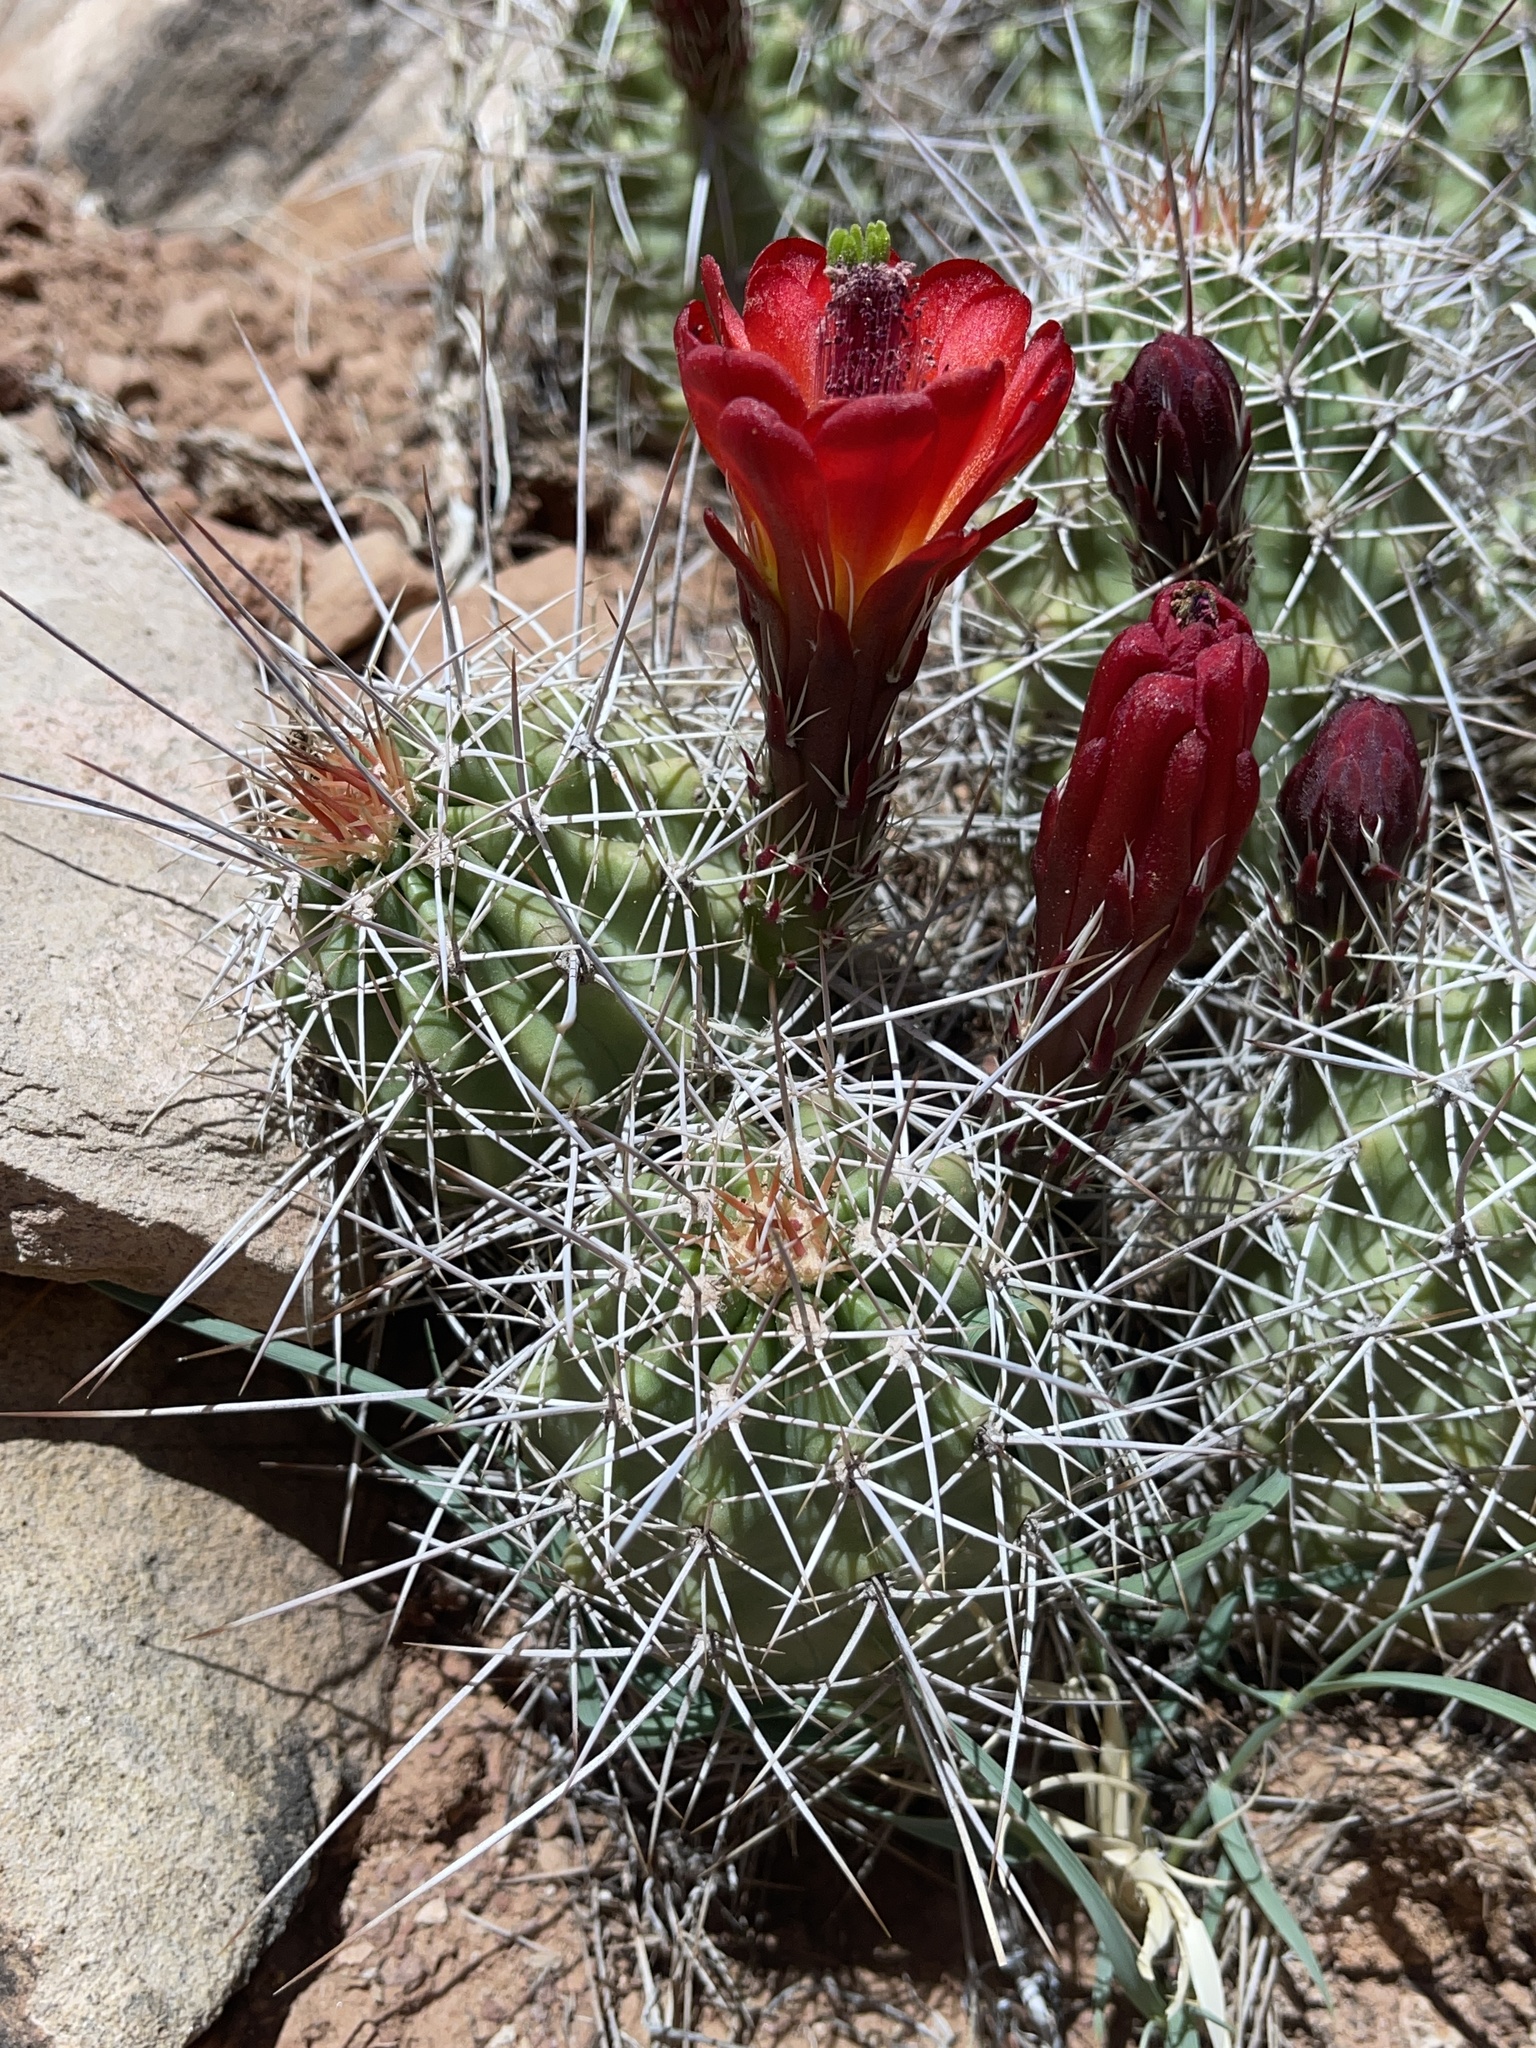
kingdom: Plantae
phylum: Tracheophyta
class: Magnoliopsida
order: Caryophyllales
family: Cactaceae
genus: Echinocereus
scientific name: Echinocereus triglochidiatus
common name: Claretcup hedgehog
